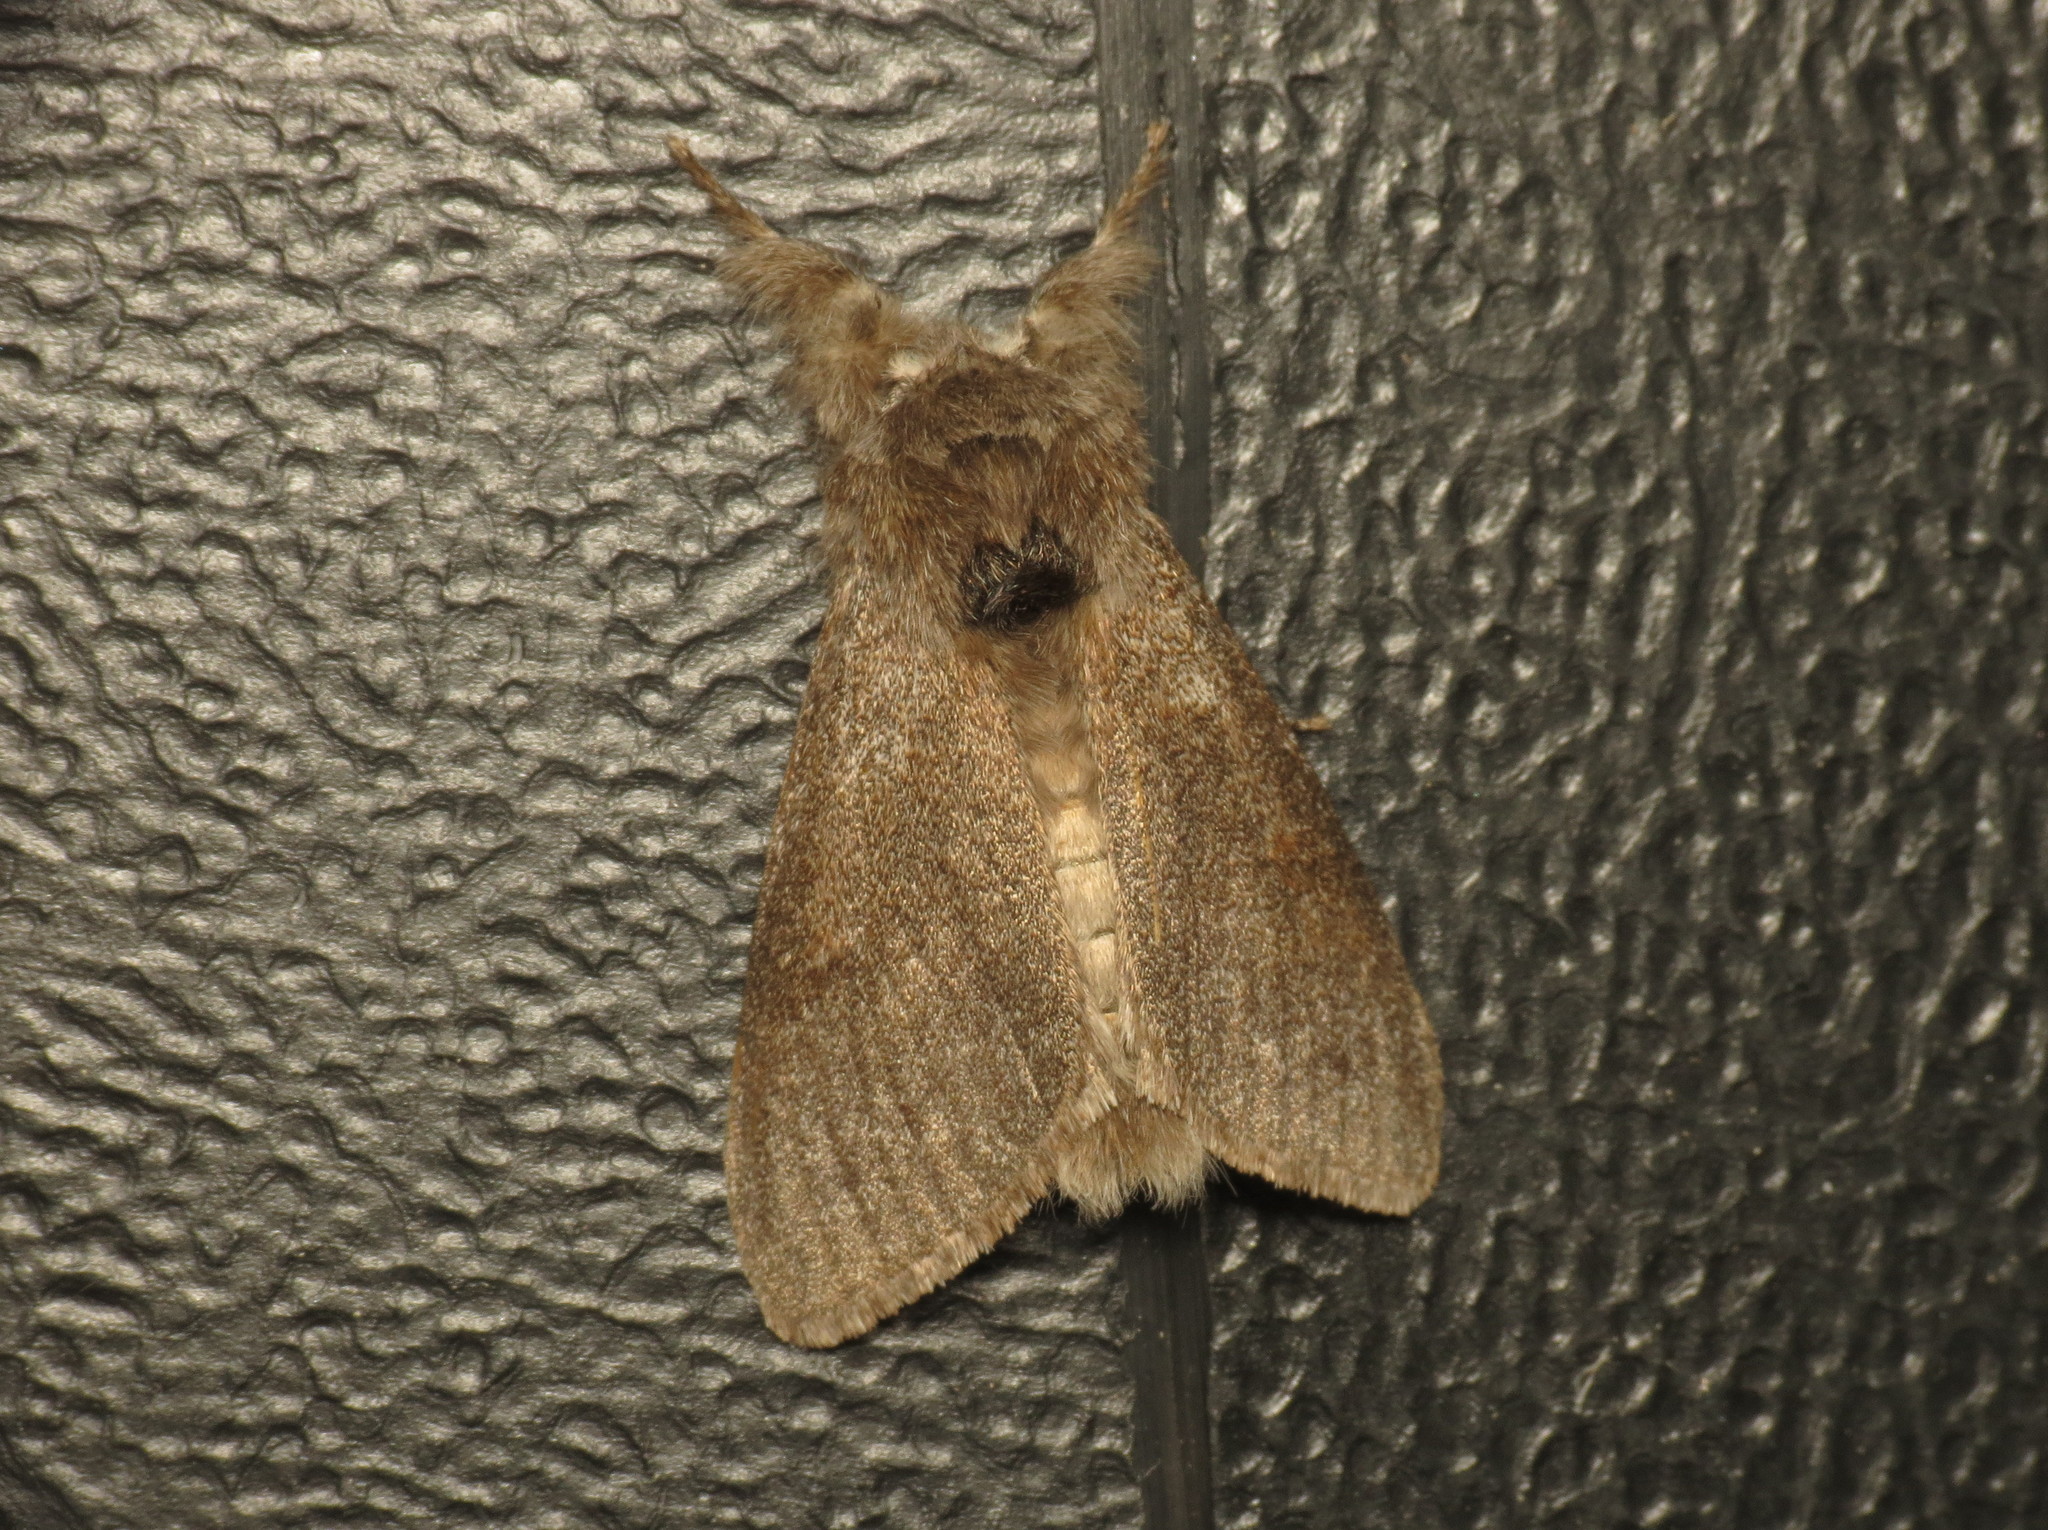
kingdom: Animalia
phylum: Arthropoda
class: Insecta
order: Lepidoptera
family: Erebidae
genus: Calliteara
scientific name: Calliteara pudibunda
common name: Pale tussock
